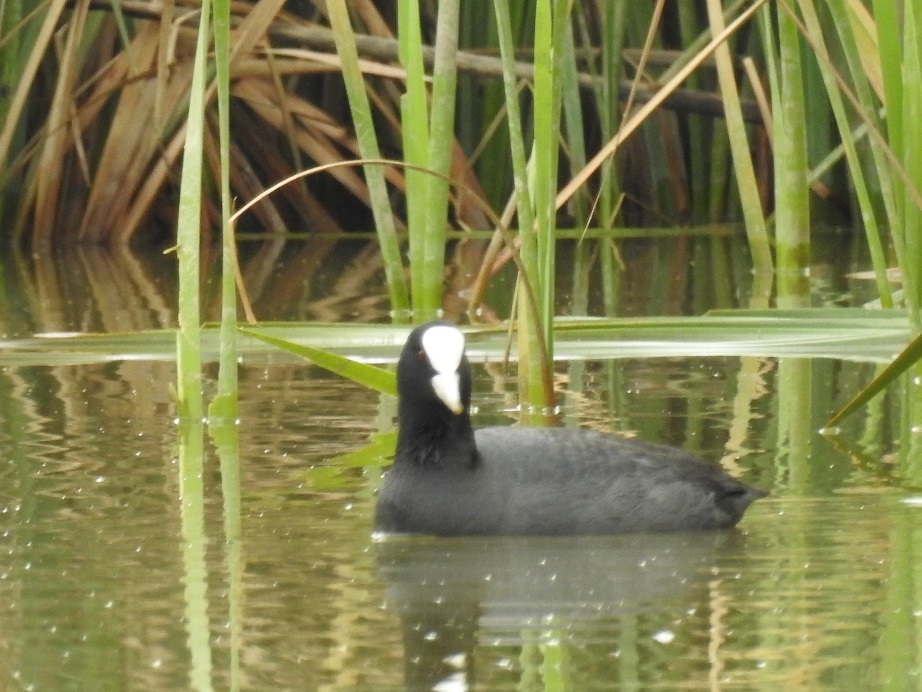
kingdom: Animalia
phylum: Chordata
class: Aves
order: Gruiformes
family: Rallidae
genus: Fulica
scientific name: Fulica atra
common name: Eurasian coot
